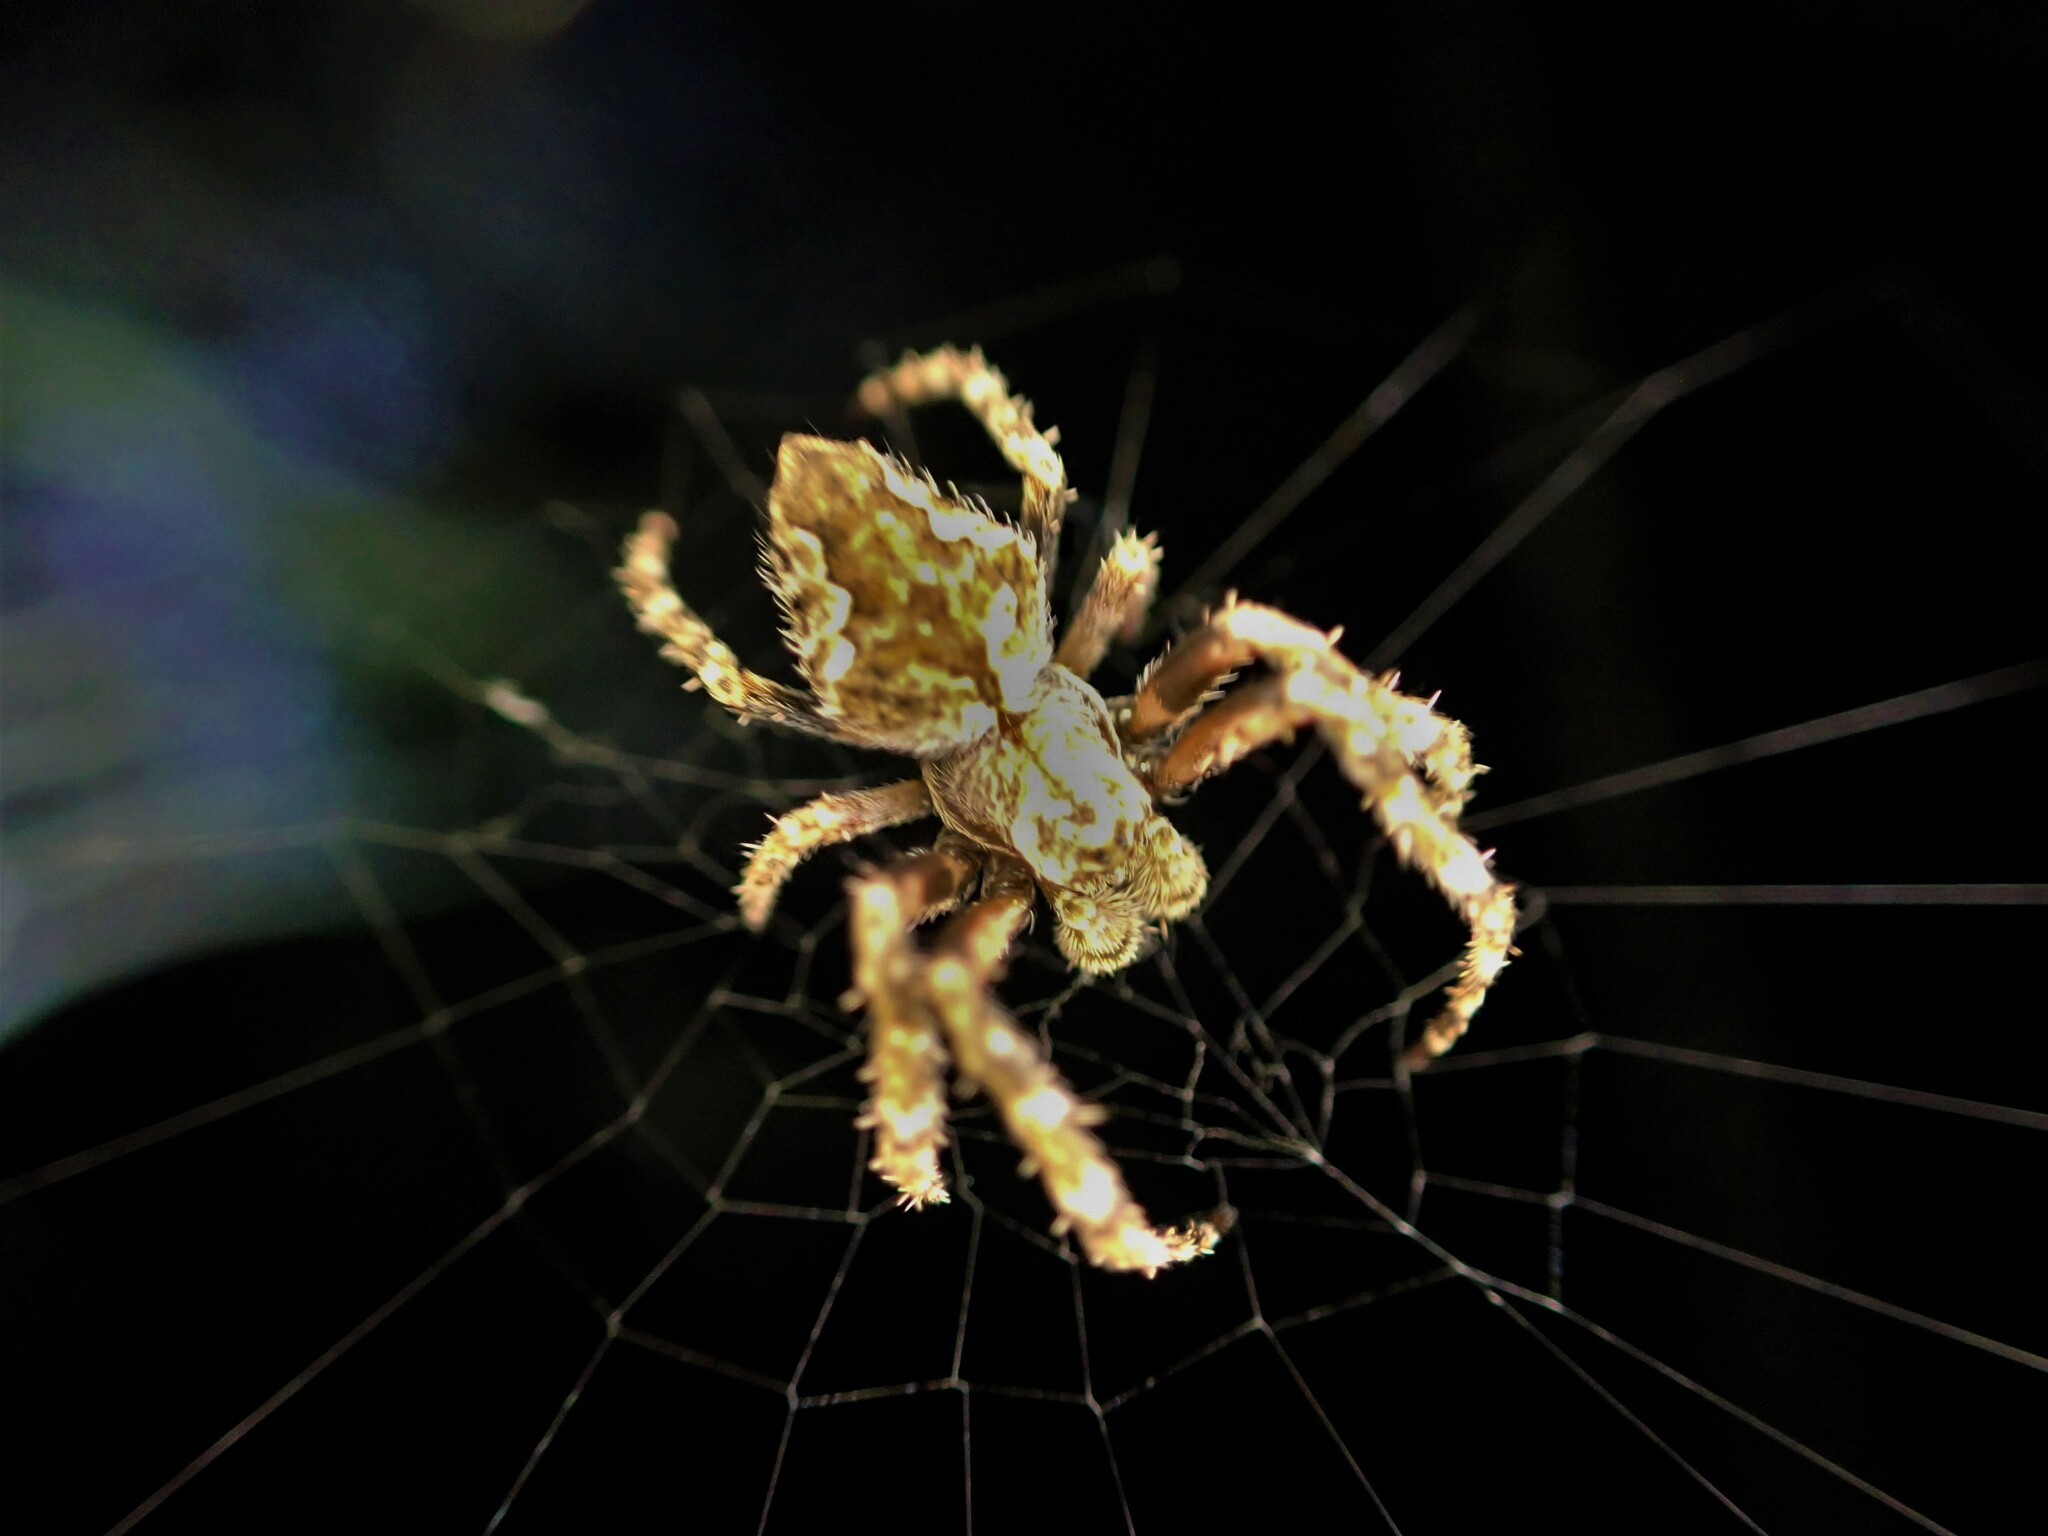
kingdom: Animalia
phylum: Arthropoda
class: Arachnida
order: Araneae
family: Araneidae
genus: Eriophora
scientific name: Eriophora pustulosa
